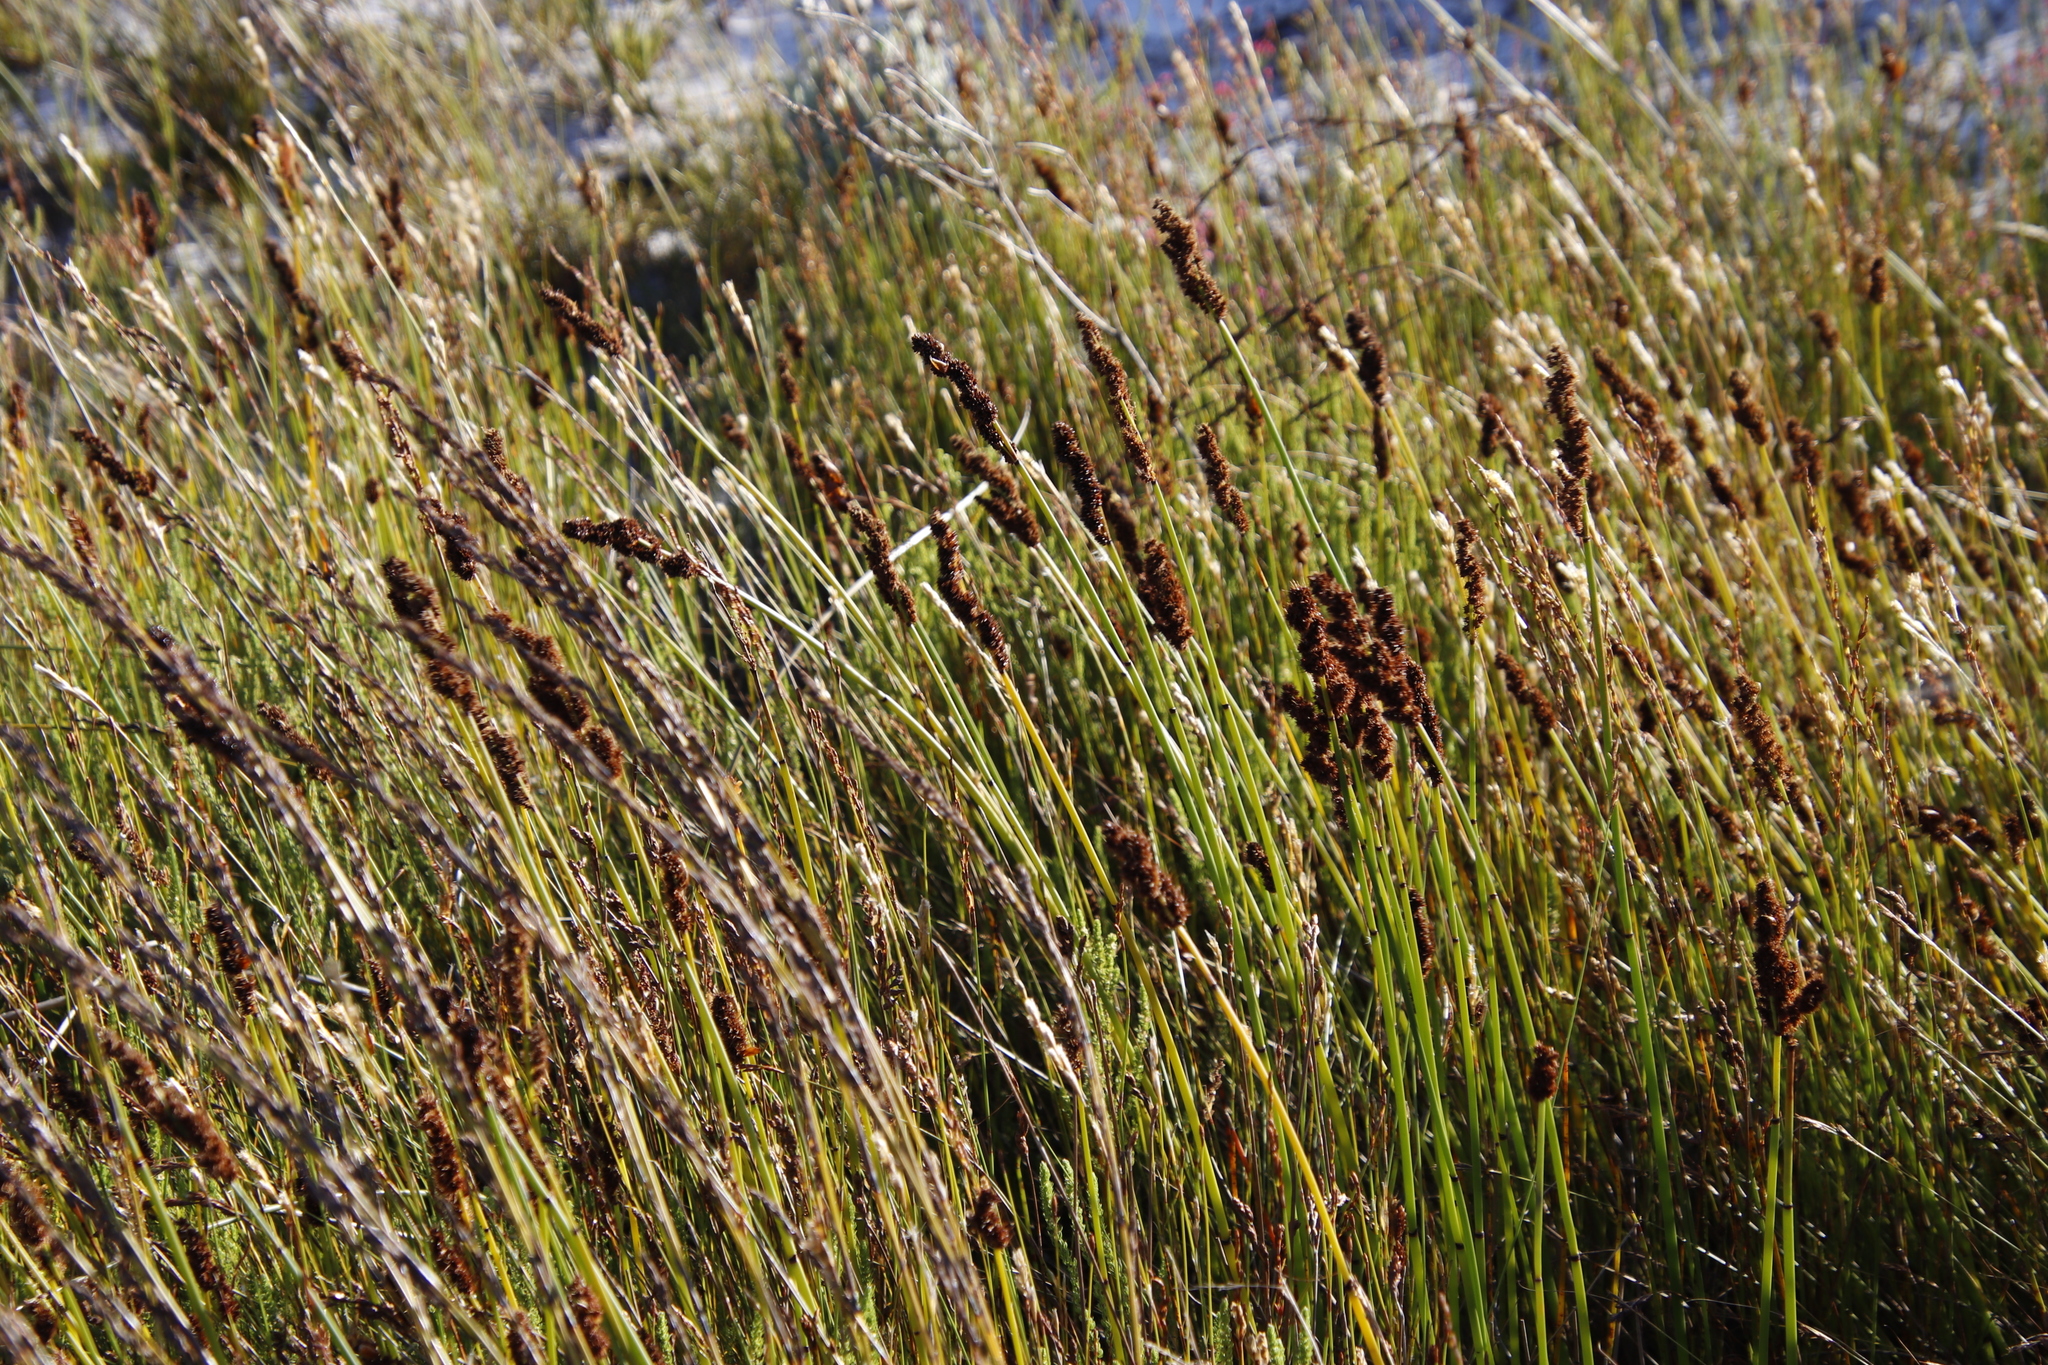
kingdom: Plantae
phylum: Tracheophyta
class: Liliopsida
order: Poales
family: Restionaceae
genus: Elegia
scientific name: Elegia cuspidata
